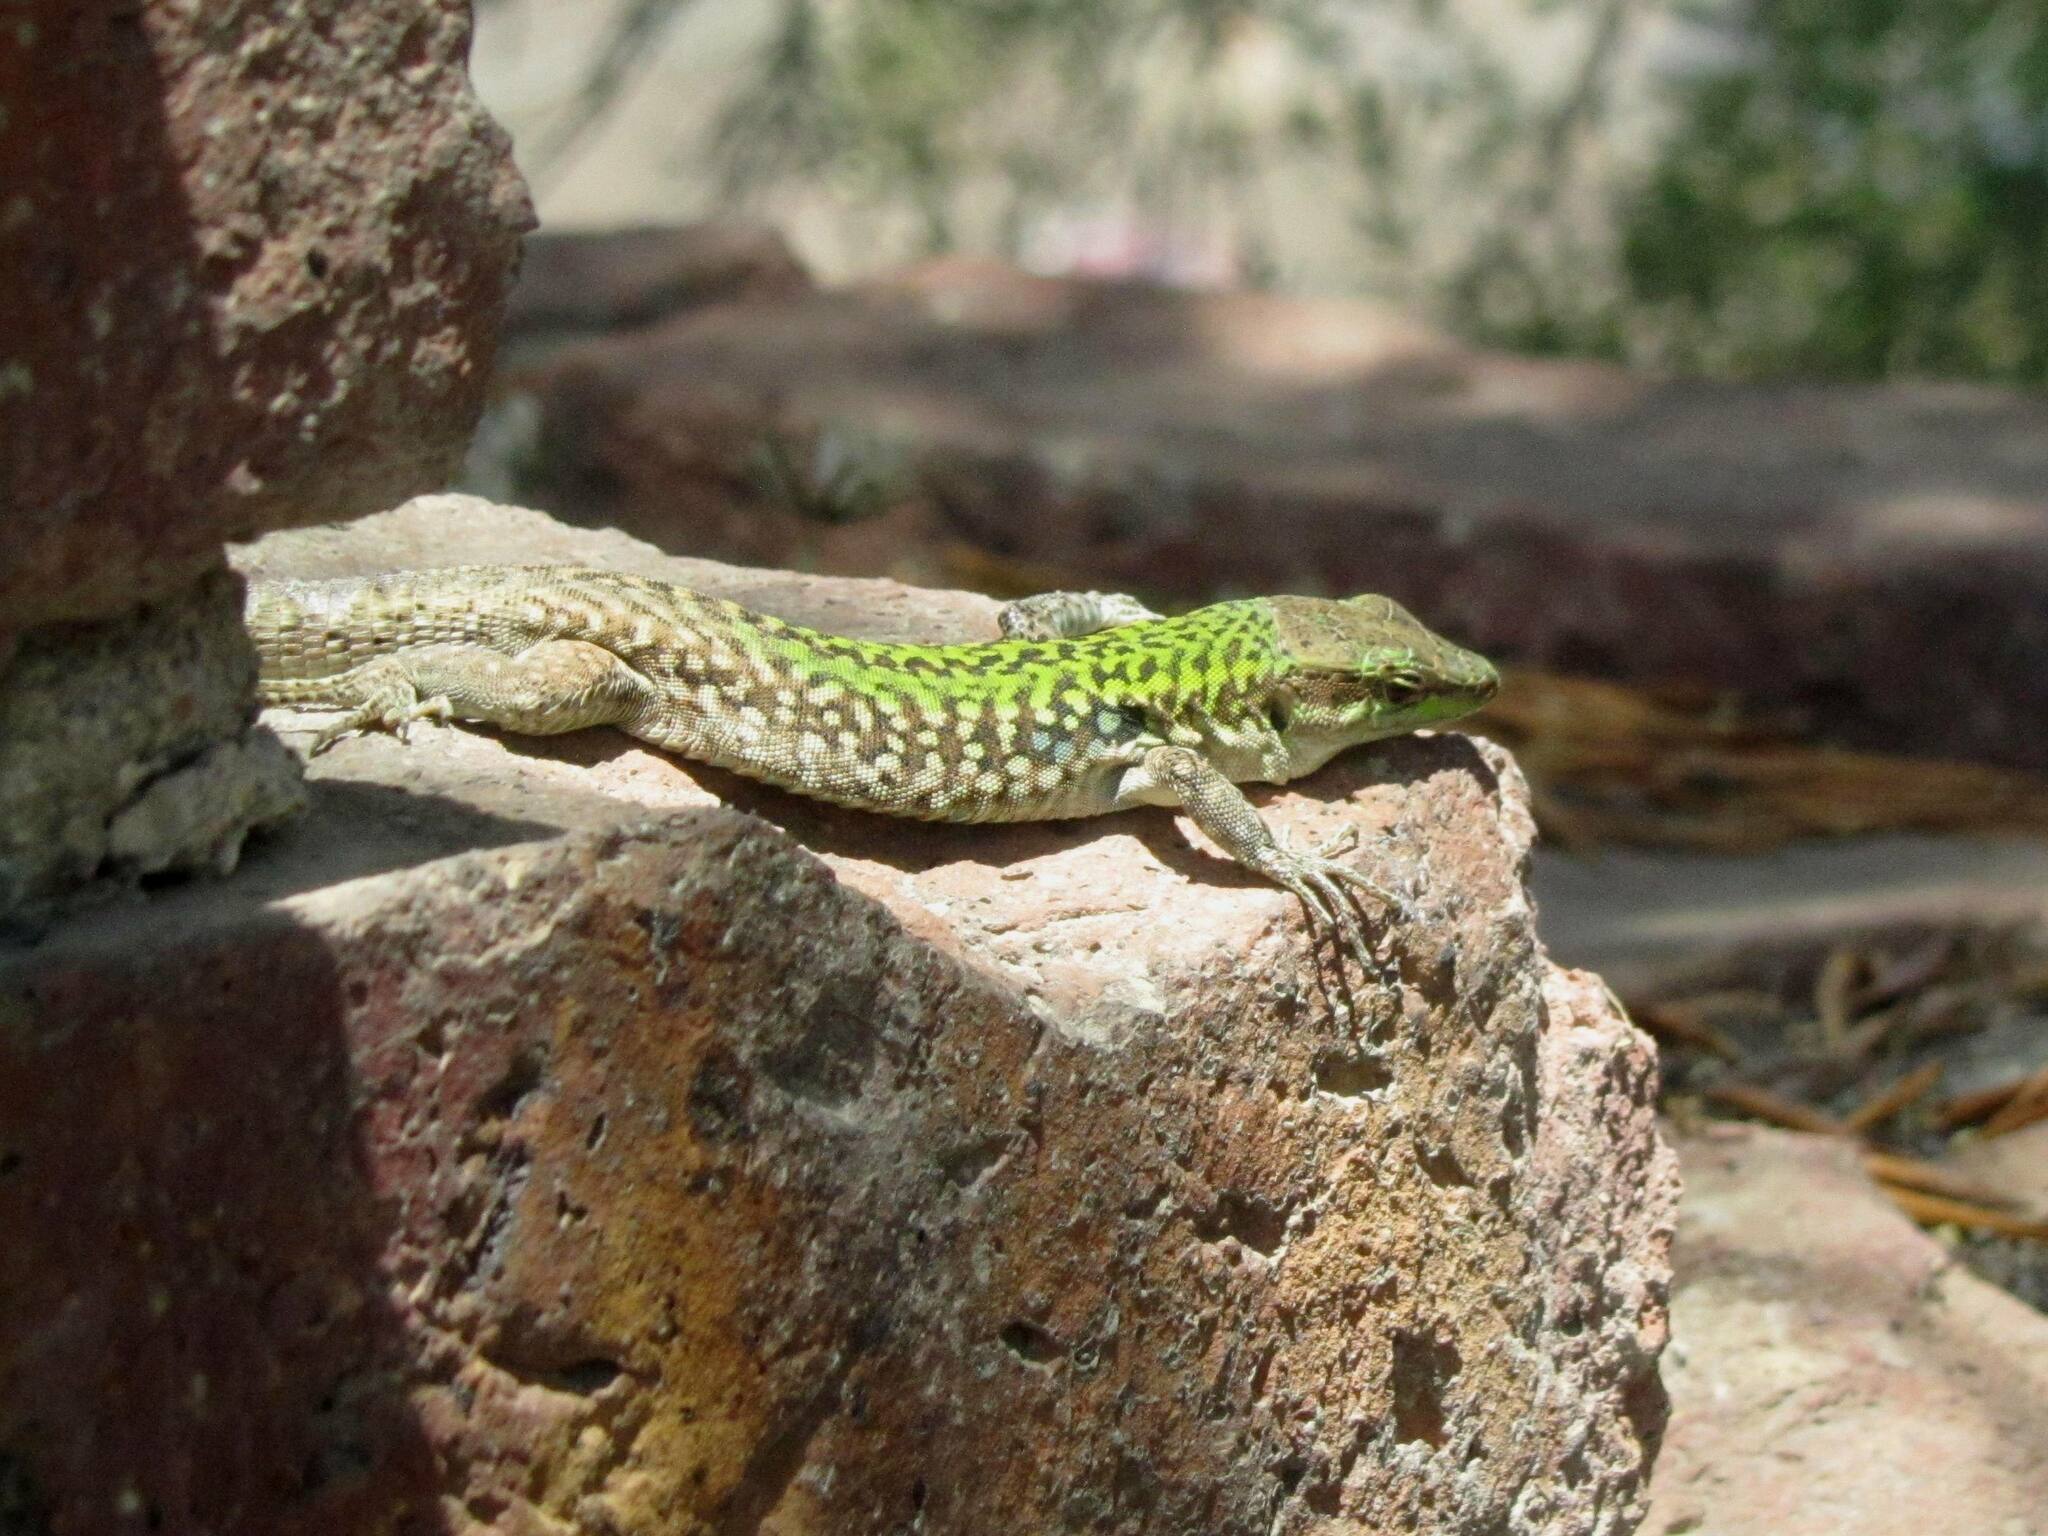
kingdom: Animalia
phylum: Chordata
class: Squamata
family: Lacertidae
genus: Podarcis
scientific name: Podarcis siculus
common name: Italian wall lizard
